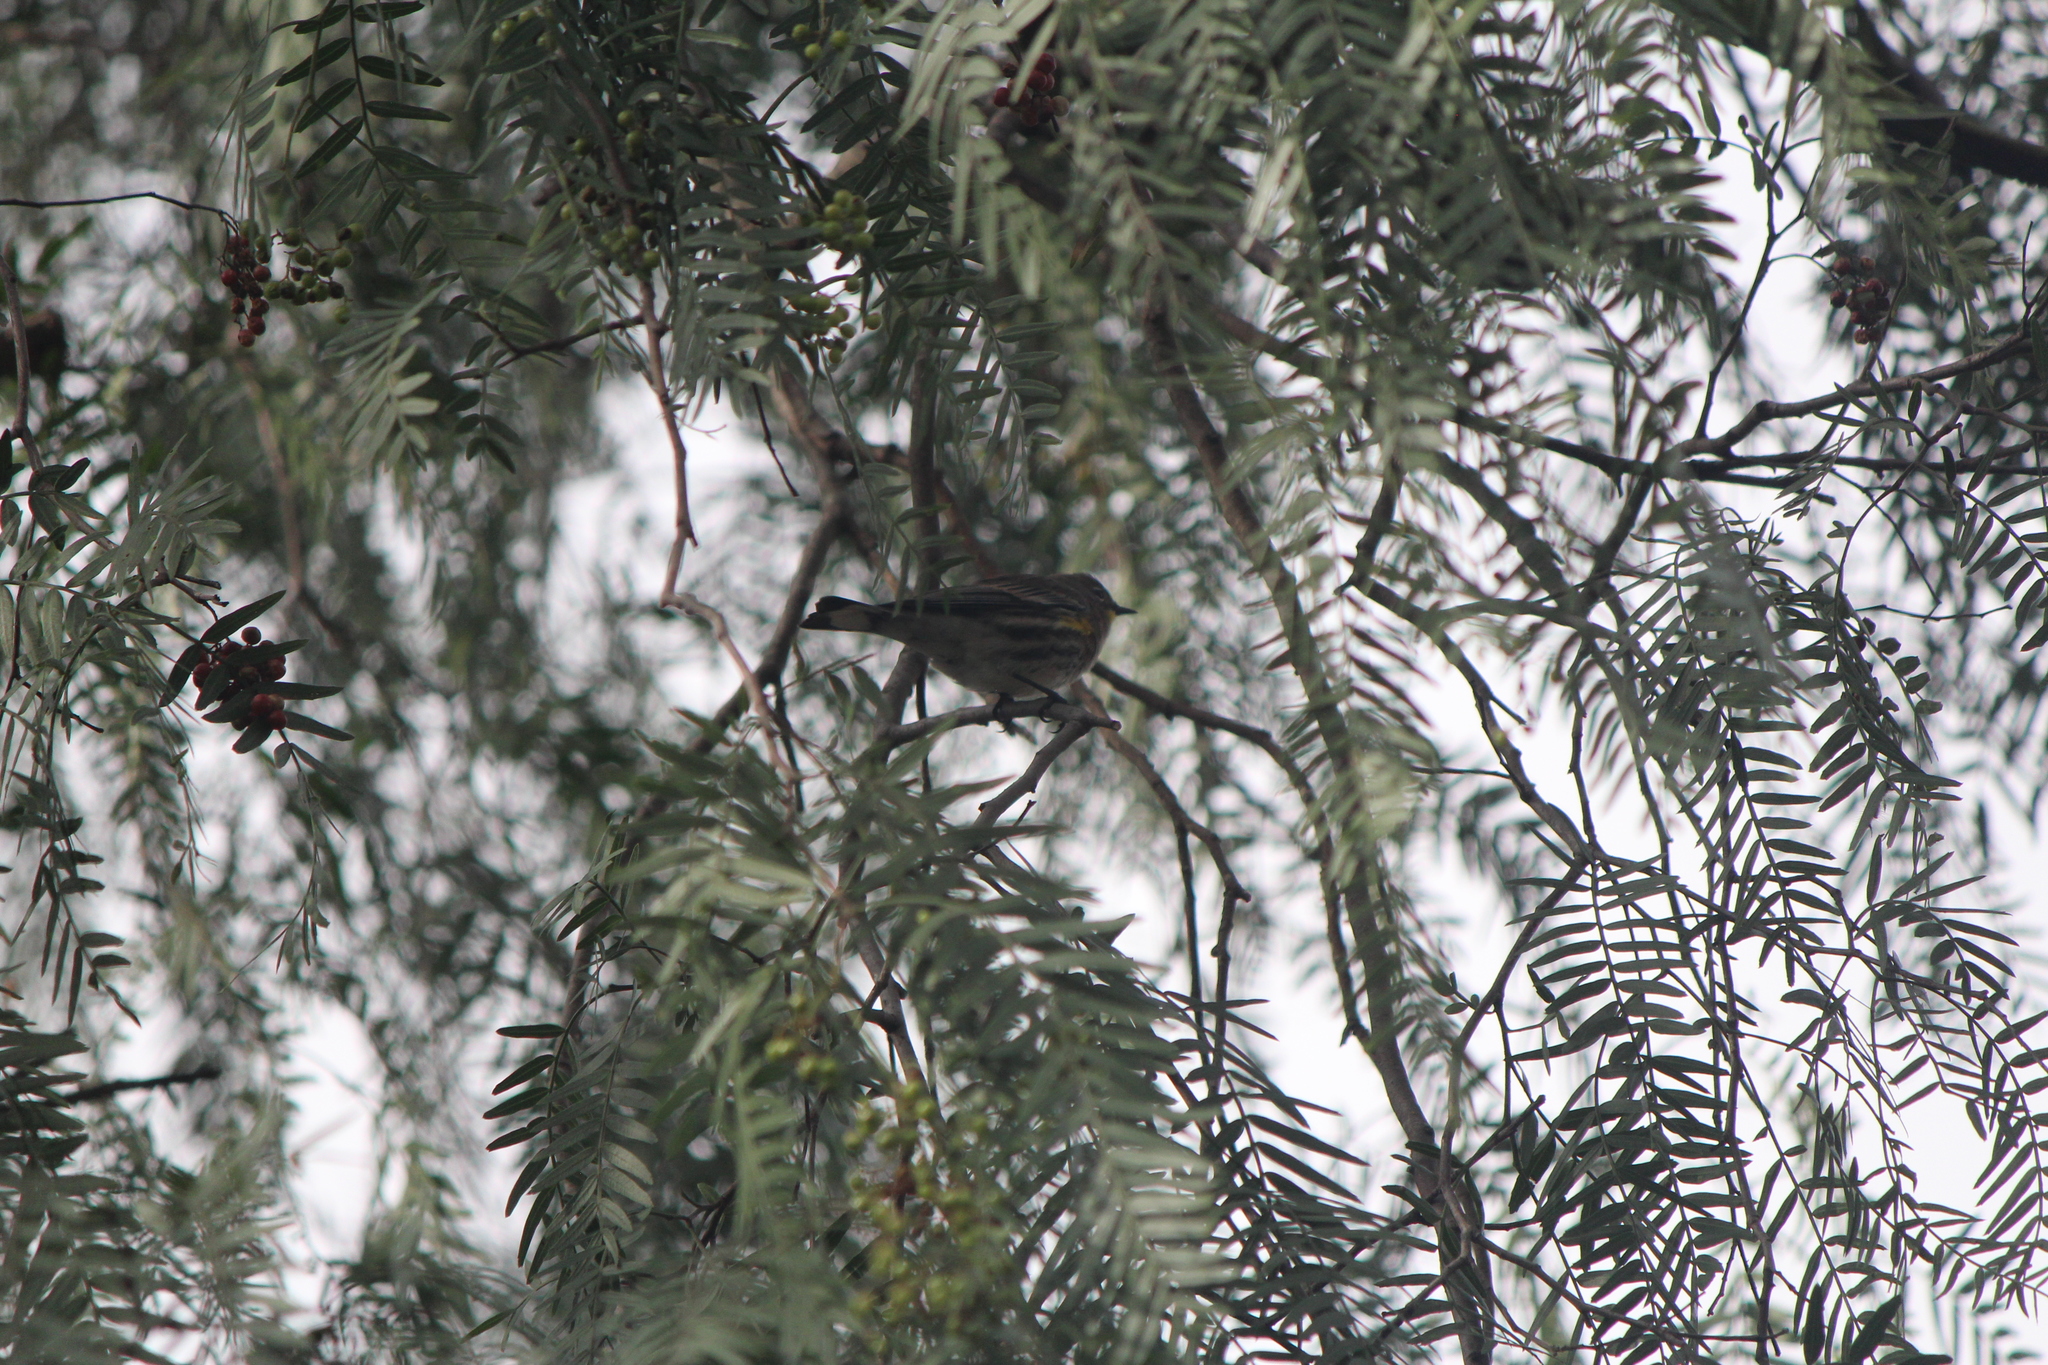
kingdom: Animalia
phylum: Chordata
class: Aves
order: Passeriformes
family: Parulidae
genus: Setophaga
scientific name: Setophaga auduboni
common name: Audubon's warbler
